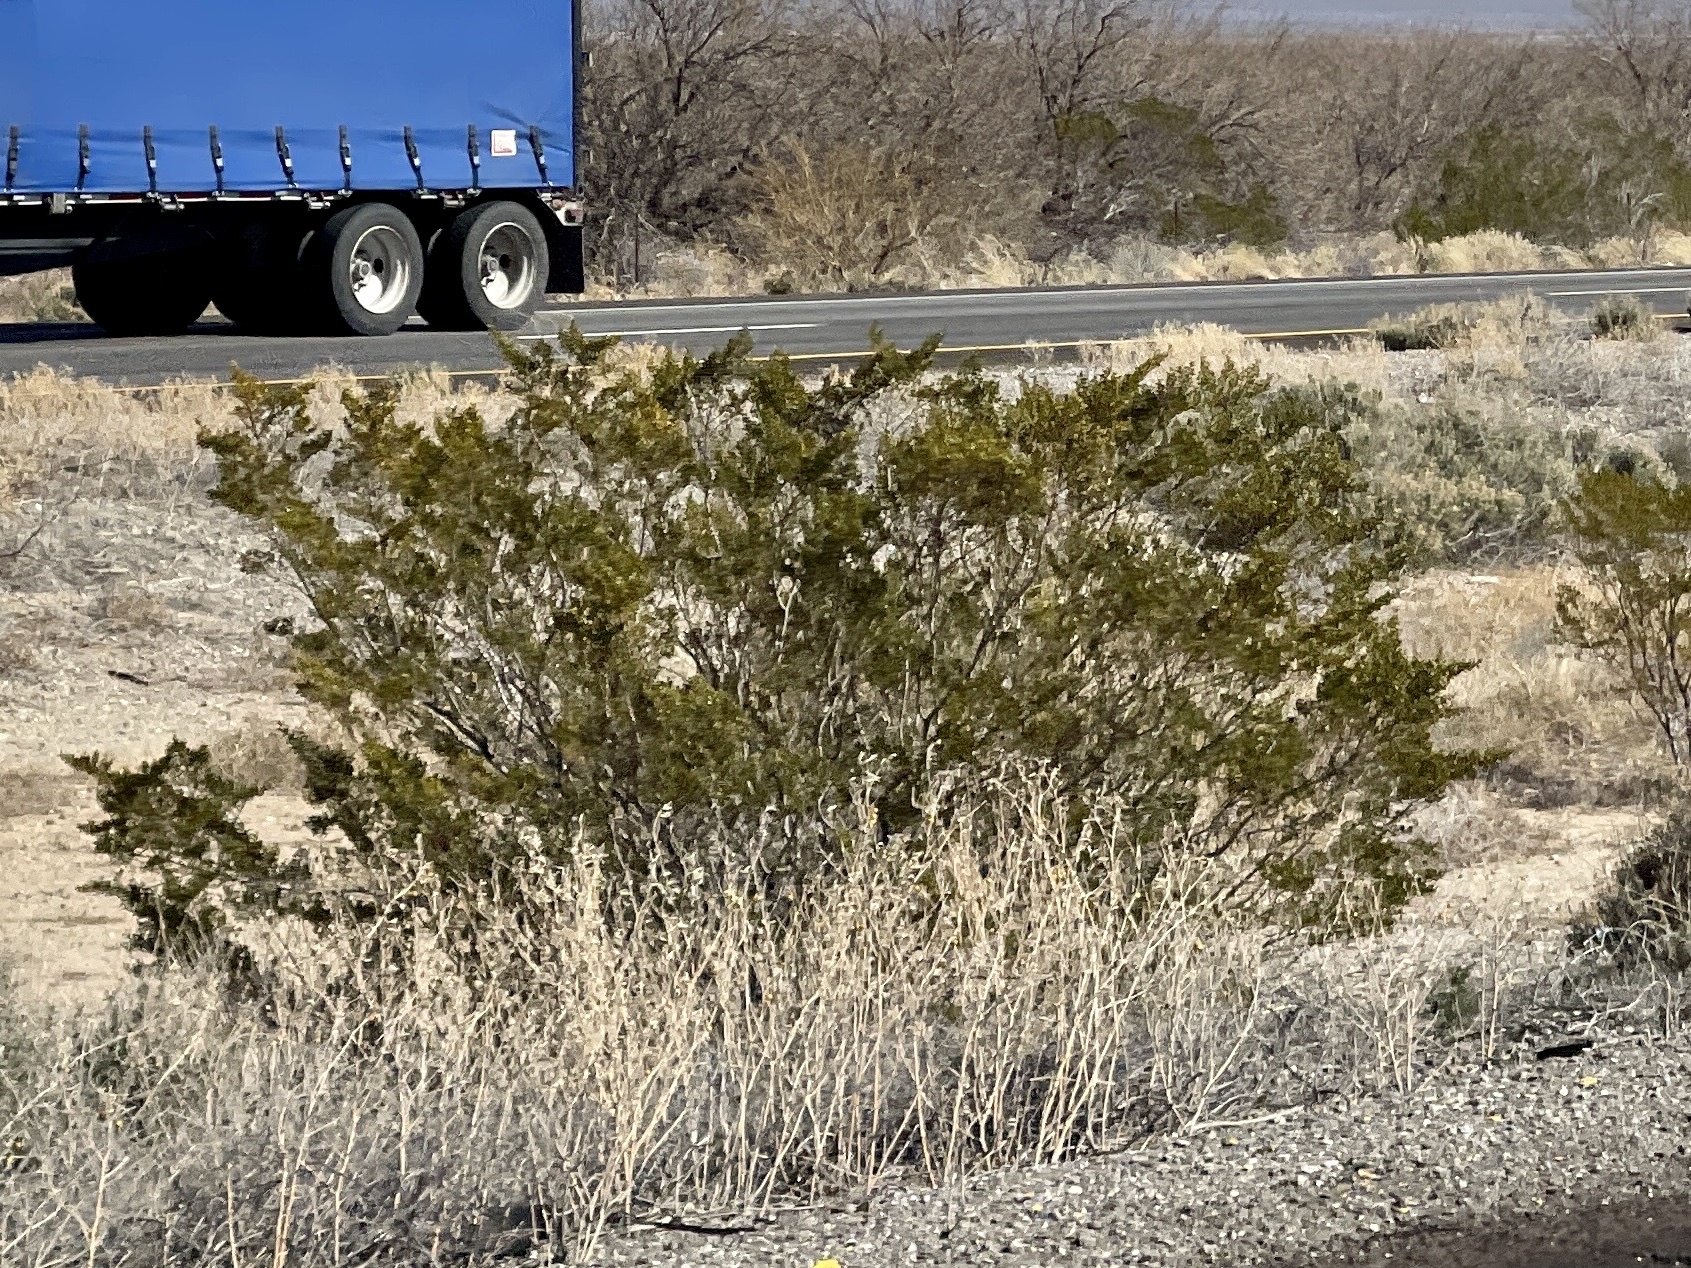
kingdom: Plantae
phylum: Tracheophyta
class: Magnoliopsida
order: Zygophyllales
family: Zygophyllaceae
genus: Larrea
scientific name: Larrea tridentata
